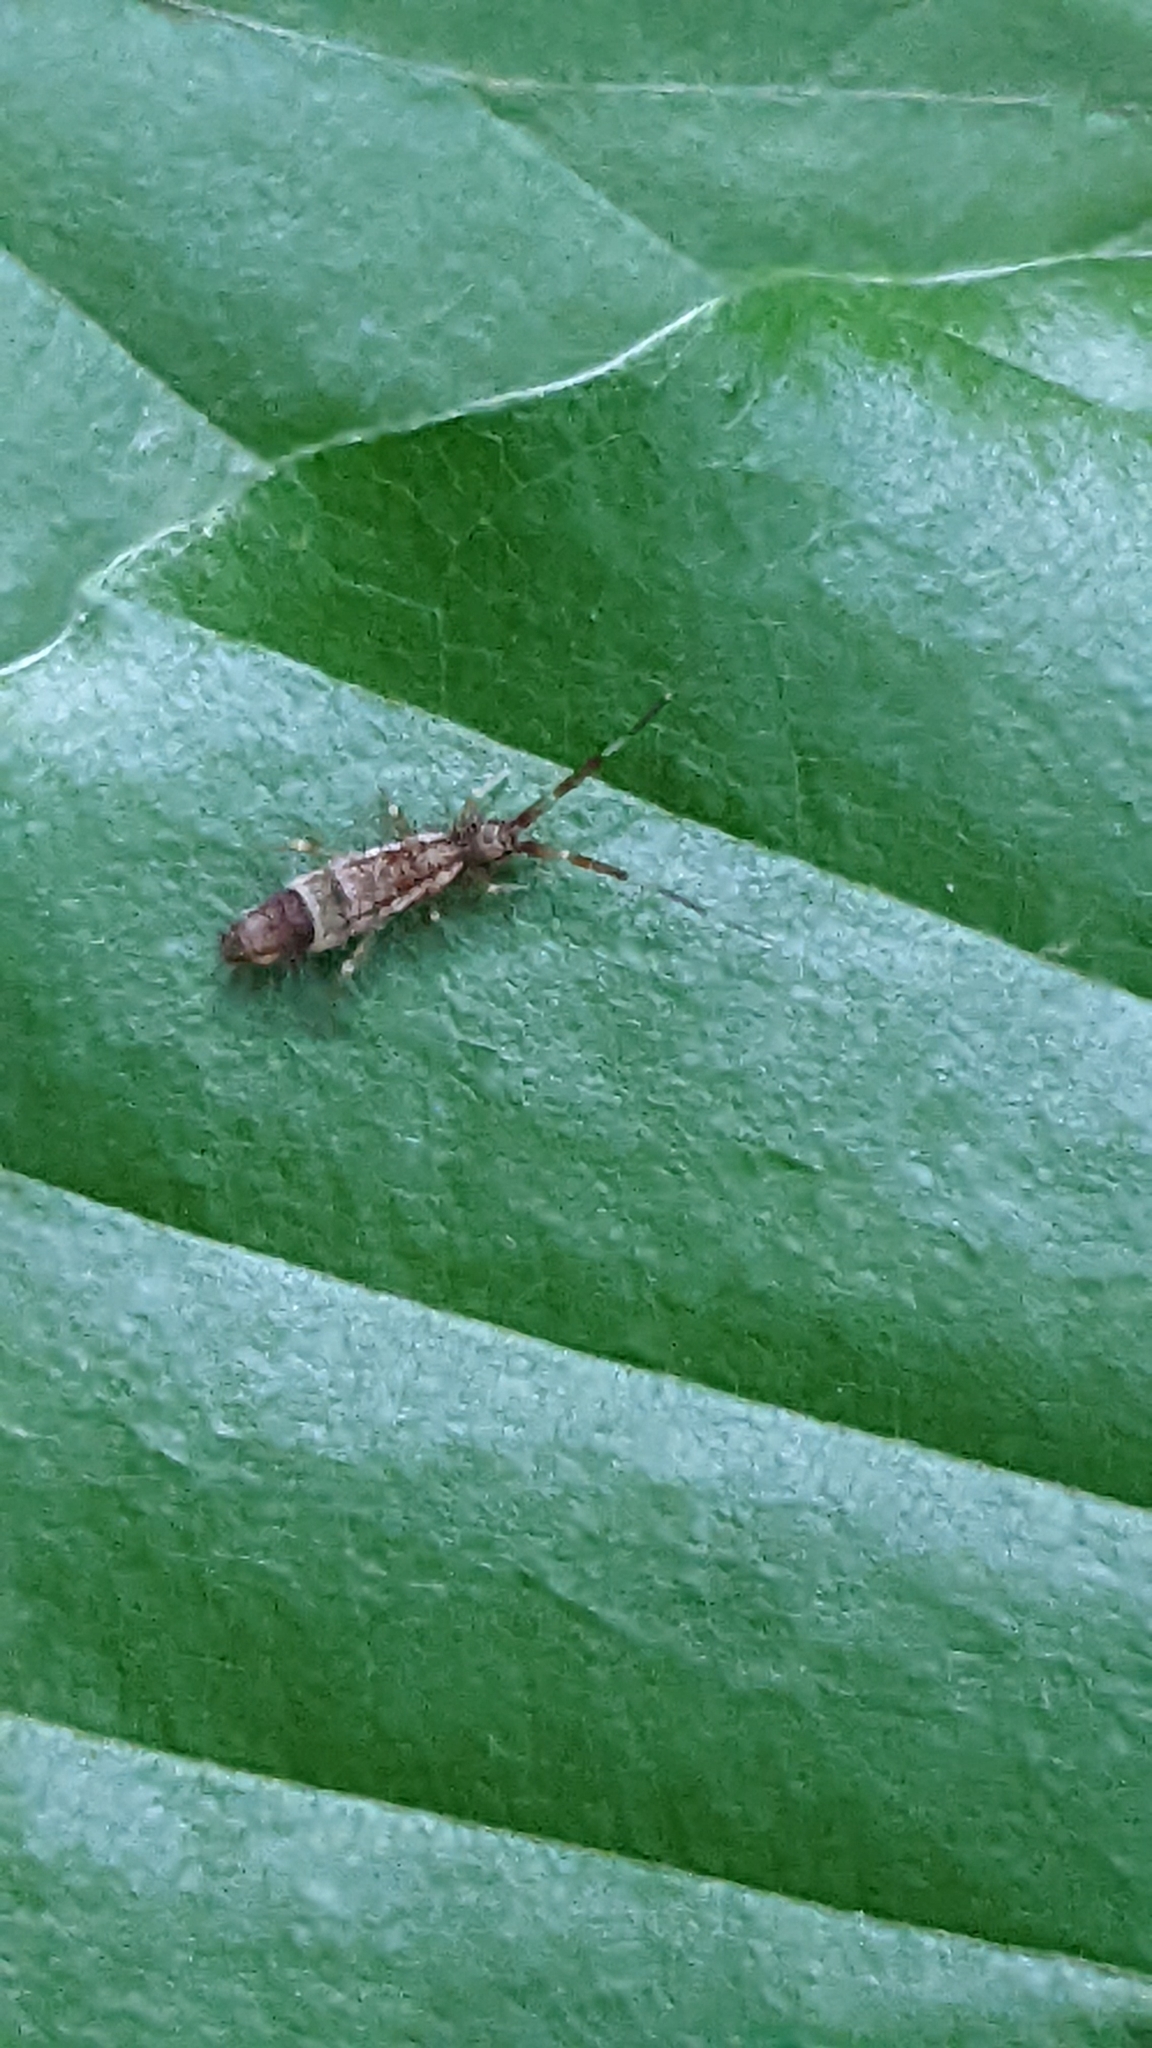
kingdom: Animalia
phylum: Arthropoda
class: Collembola
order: Entomobryomorpha
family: Entomobryidae
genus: Entomobrya
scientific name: Entomobrya nivalis
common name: Cosmopolitan springtail
